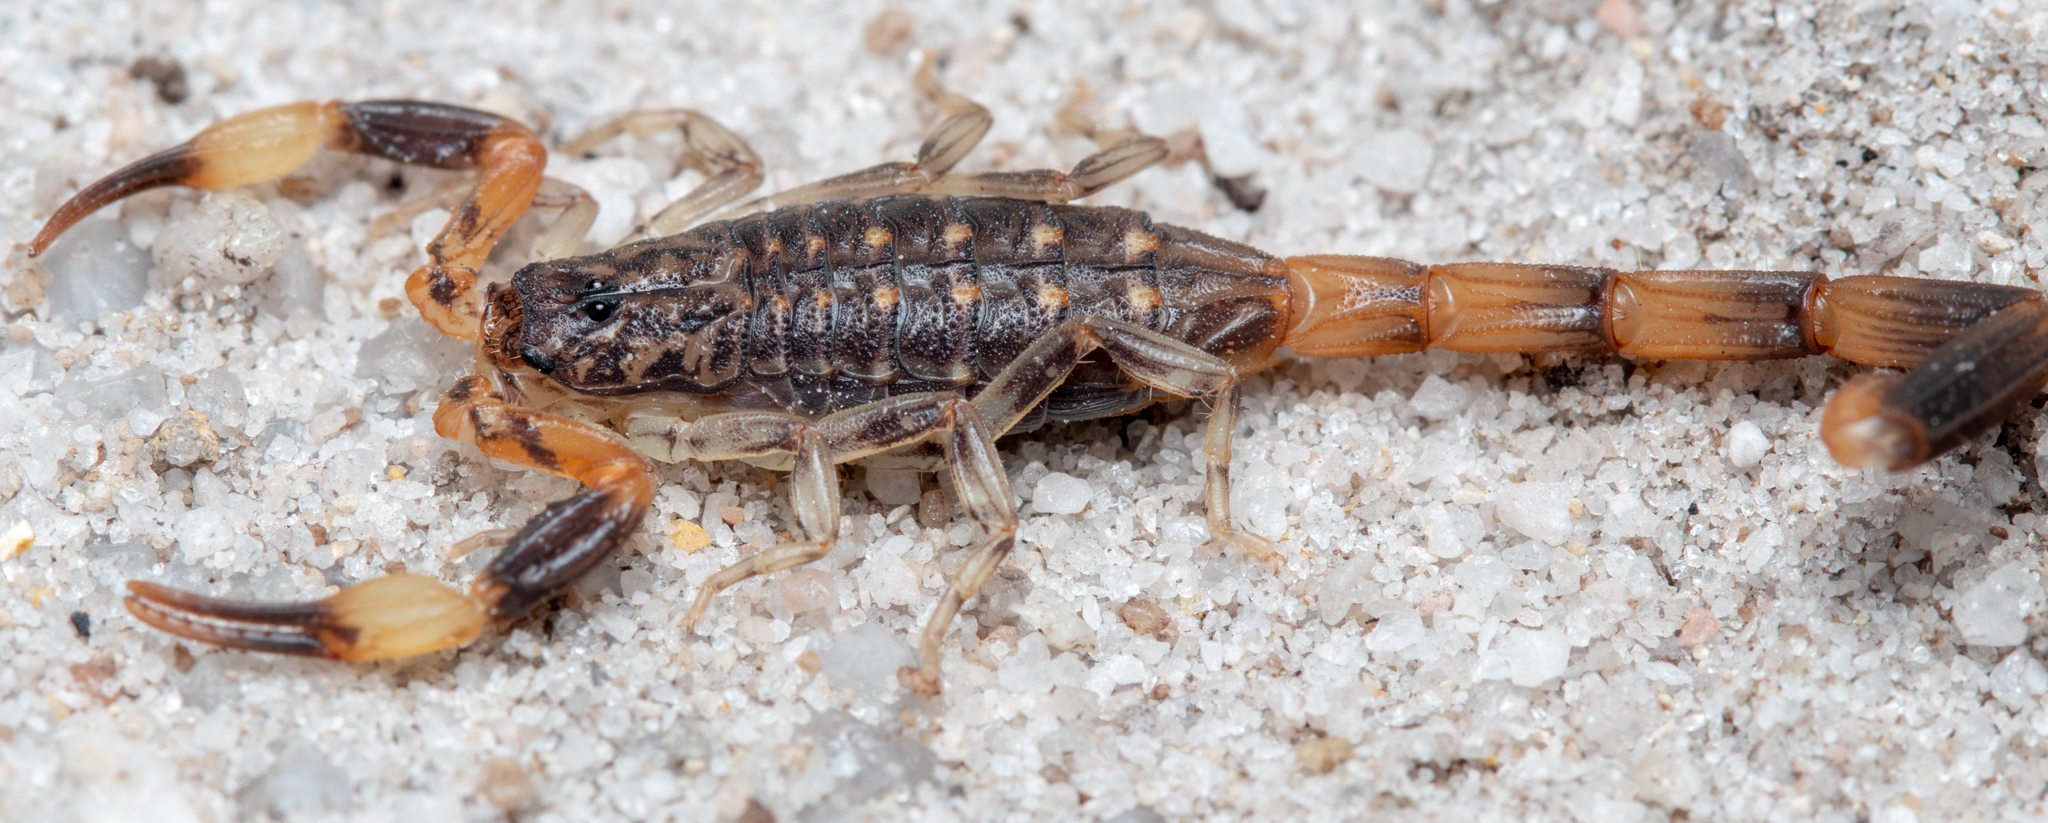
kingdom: Animalia
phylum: Arthropoda
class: Arachnida
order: Scorpiones
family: Buthidae
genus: Reddyanus
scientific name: Reddyanus melanodactylus
